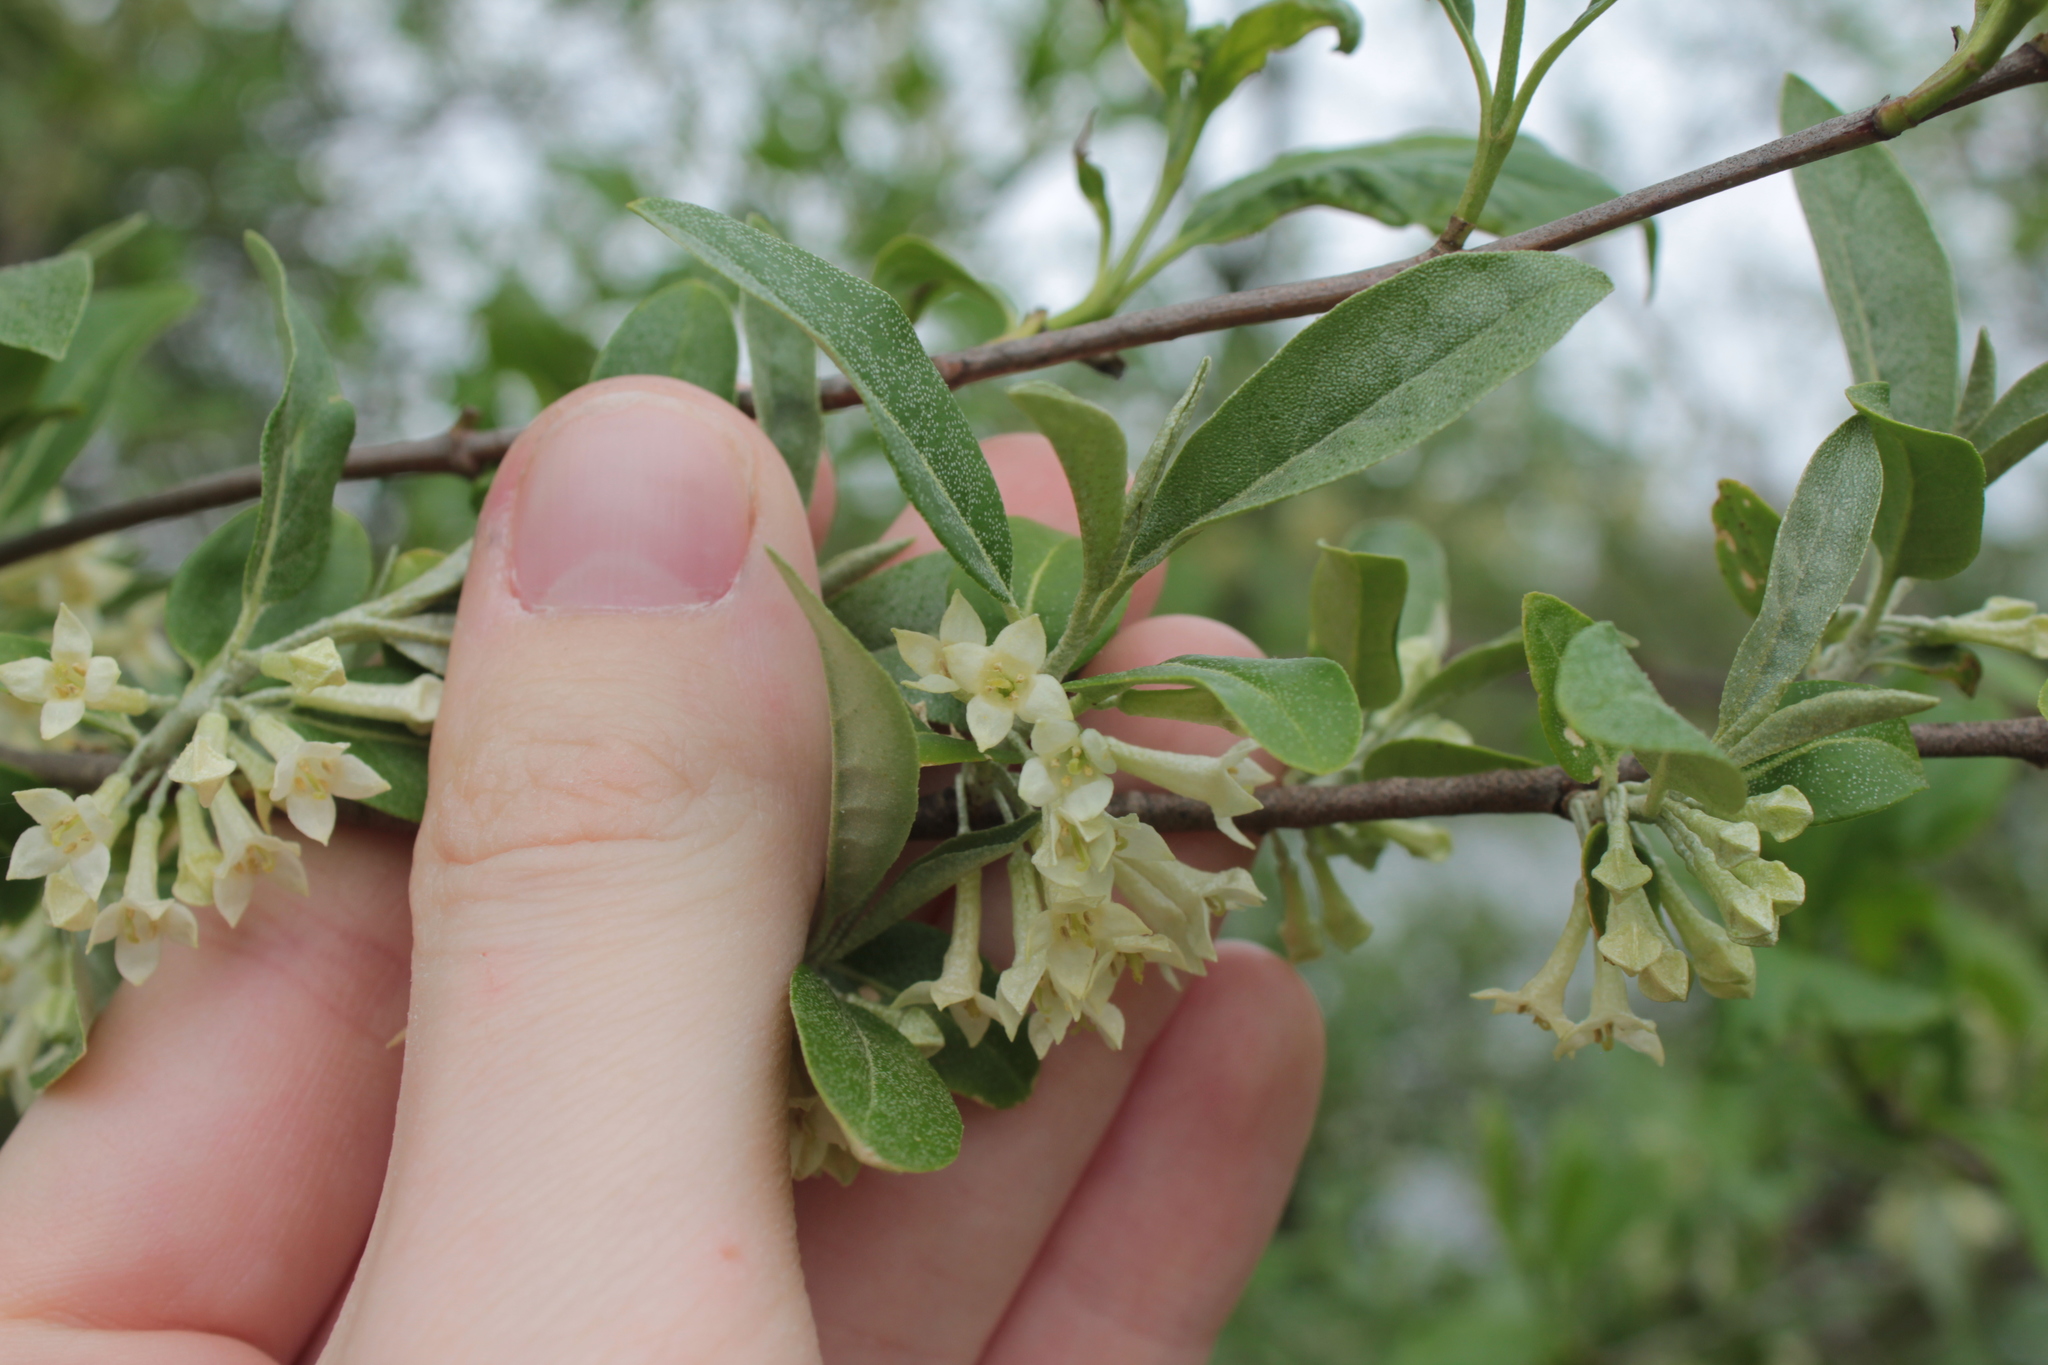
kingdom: Plantae
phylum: Tracheophyta
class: Magnoliopsida
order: Rosales
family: Elaeagnaceae
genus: Elaeagnus
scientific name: Elaeagnus umbellata
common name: Autumn olive
